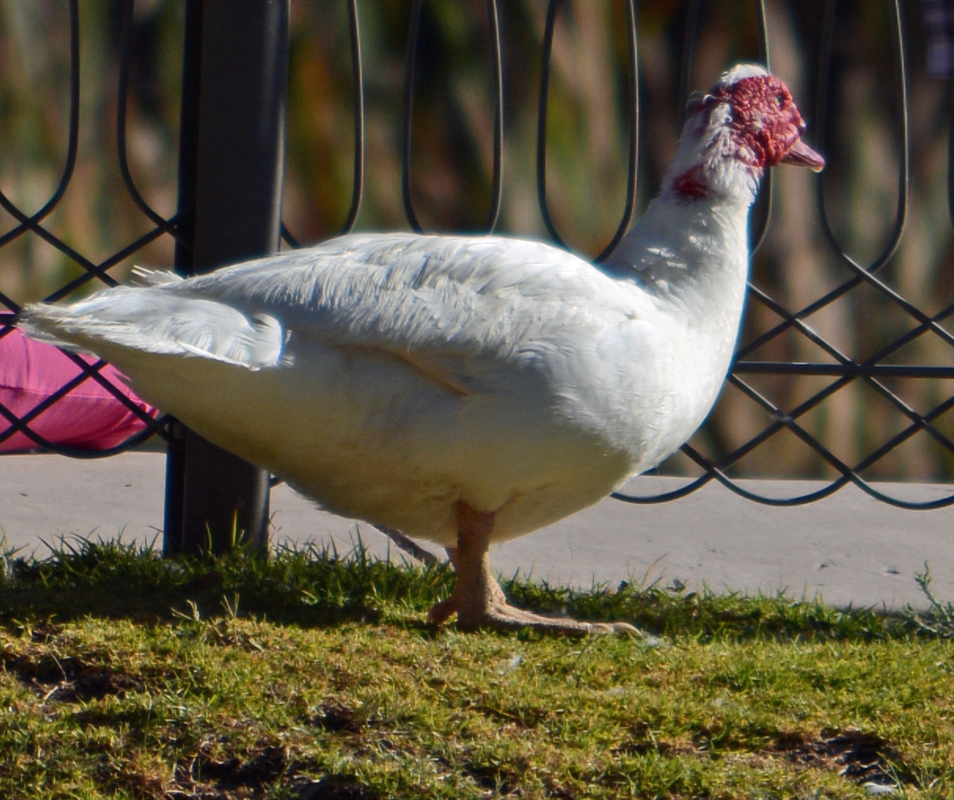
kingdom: Animalia
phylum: Chordata
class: Aves
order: Anseriformes
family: Anatidae
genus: Cairina
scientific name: Cairina moschata
